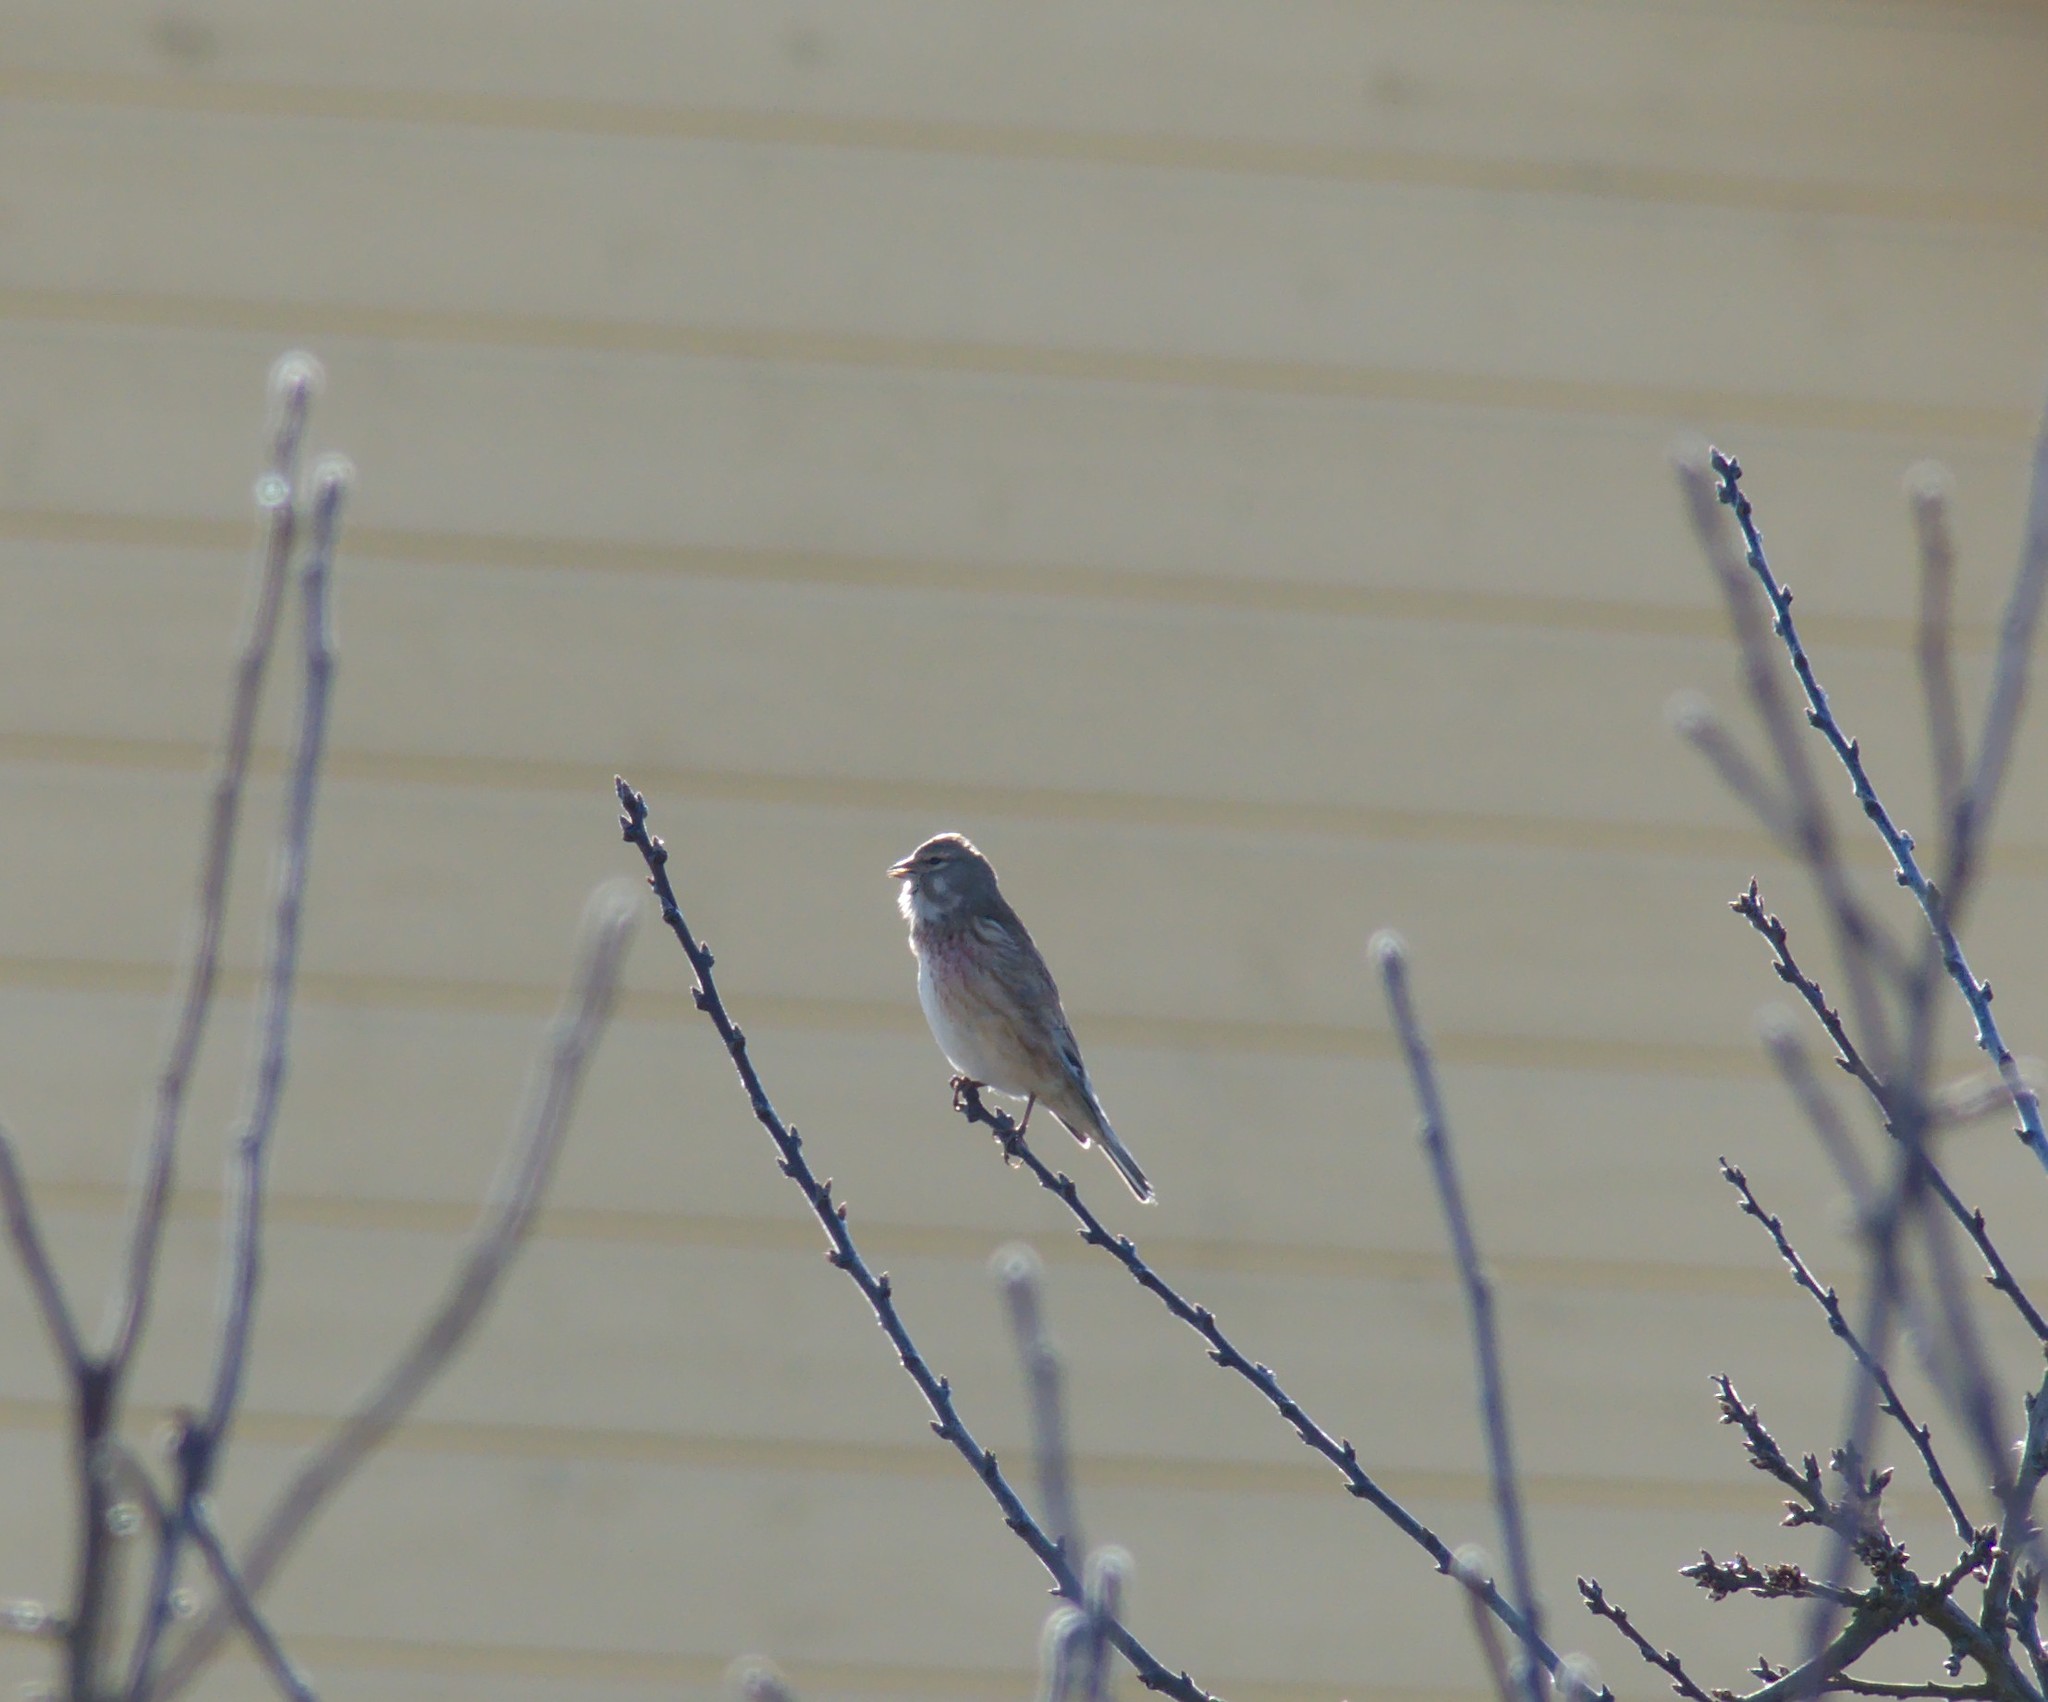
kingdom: Animalia
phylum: Chordata
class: Aves
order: Passeriformes
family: Fringillidae
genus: Linaria
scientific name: Linaria cannabina
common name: Common linnet
